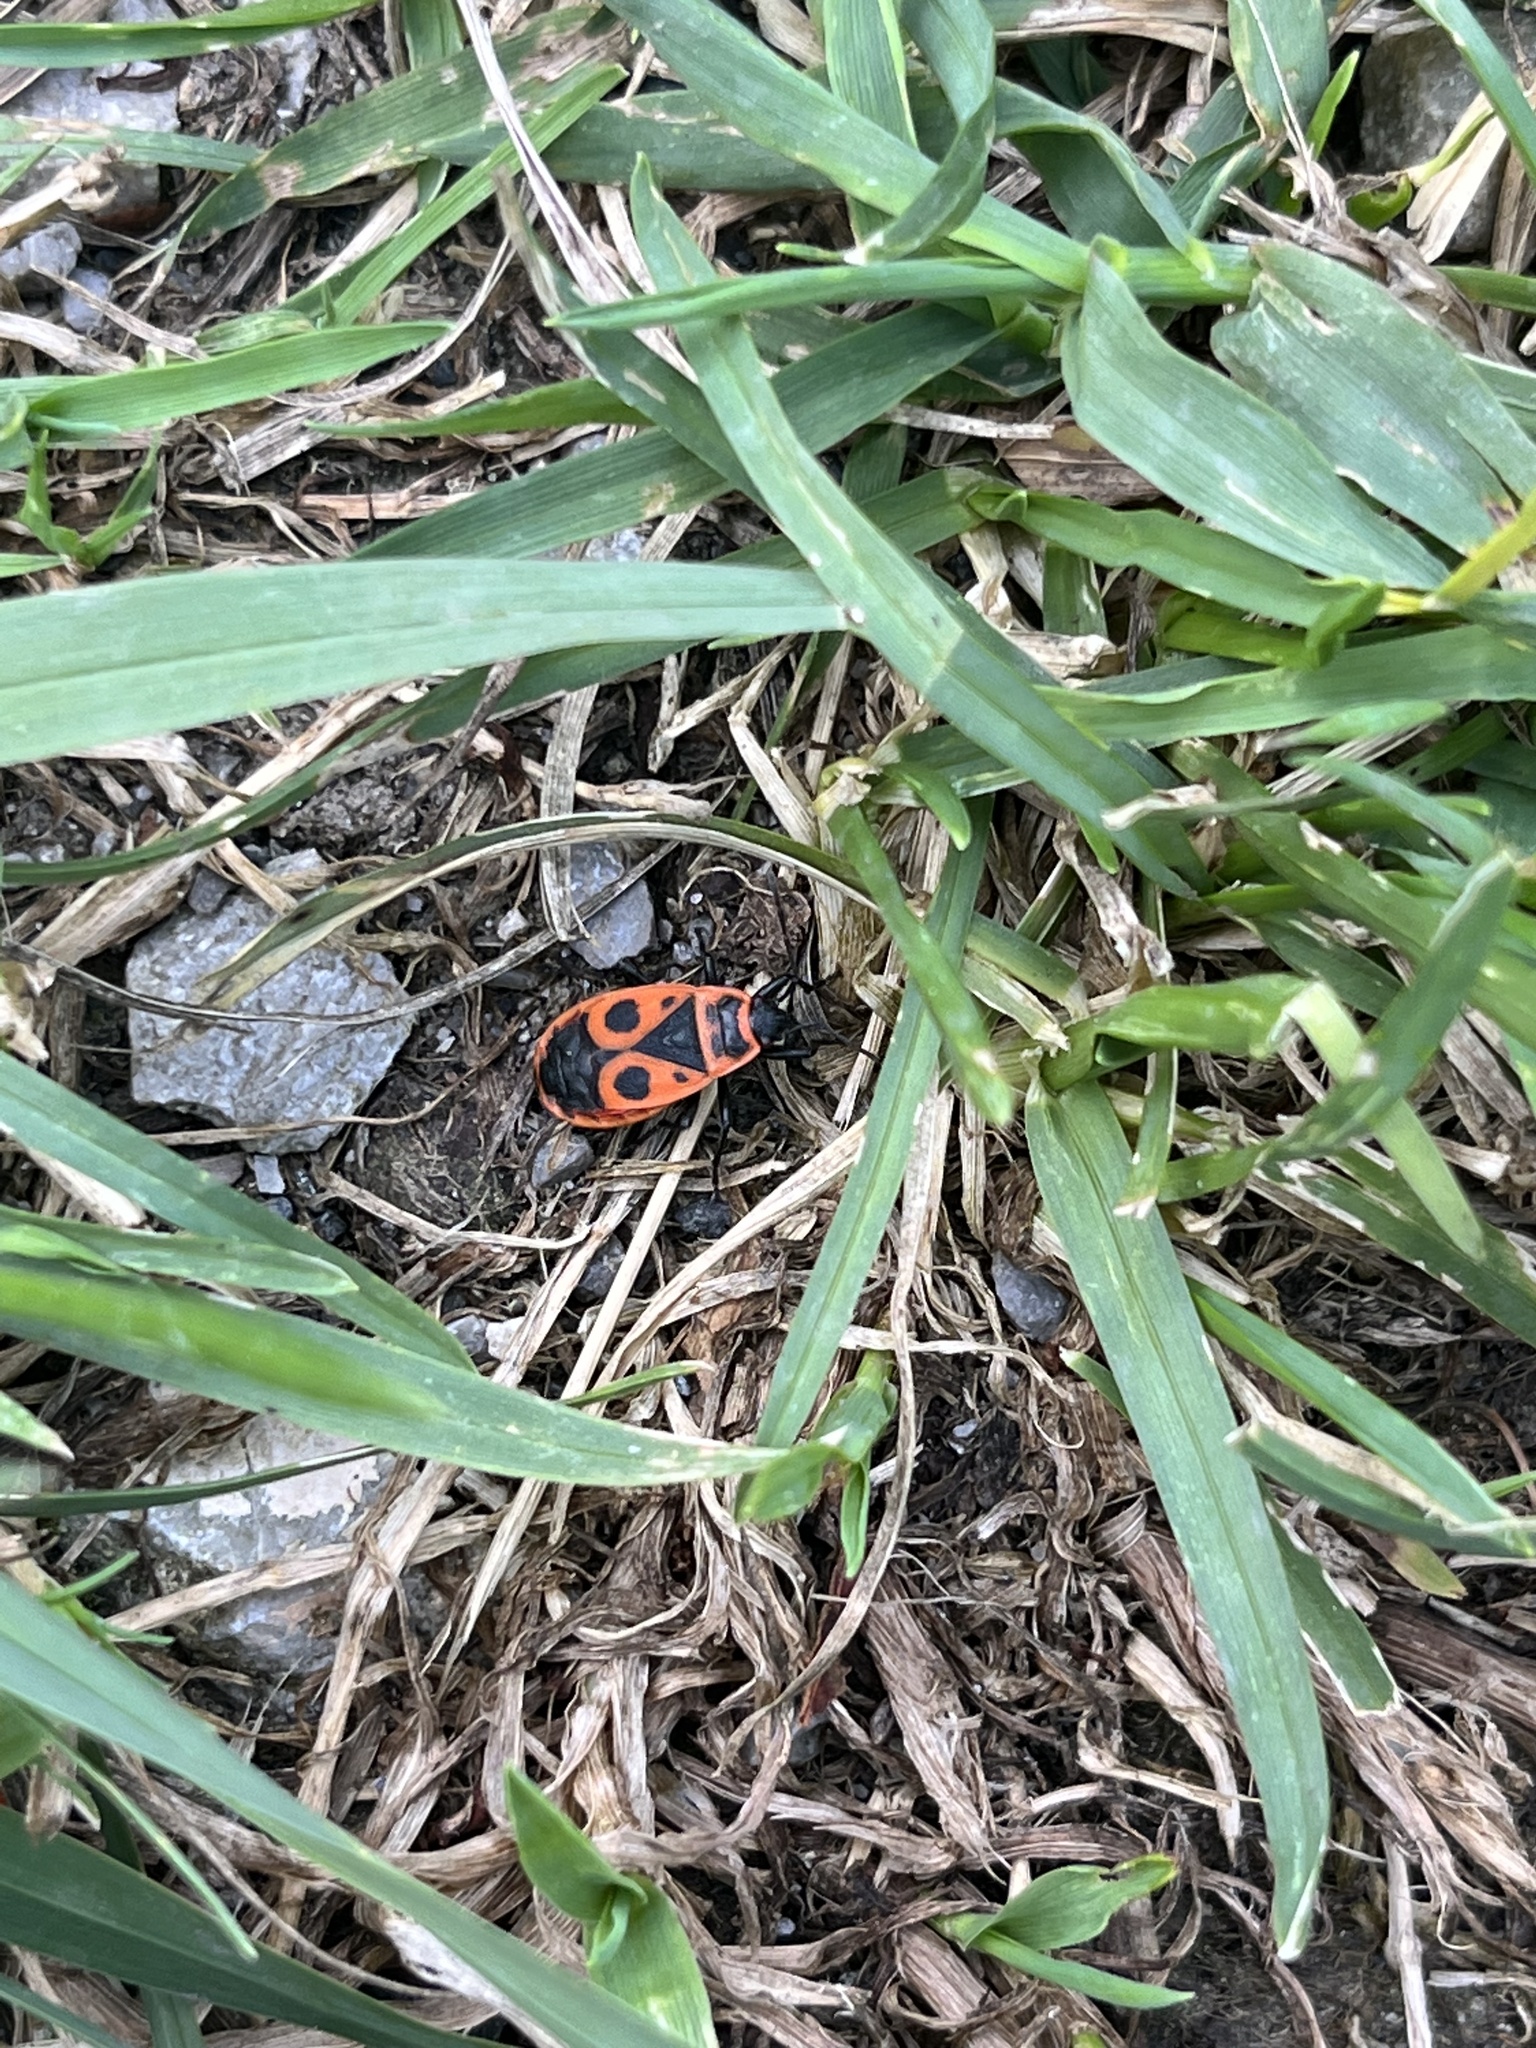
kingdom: Animalia
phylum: Arthropoda
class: Insecta
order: Hemiptera
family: Pyrrhocoridae
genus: Pyrrhocoris
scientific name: Pyrrhocoris apterus
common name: Firebug
